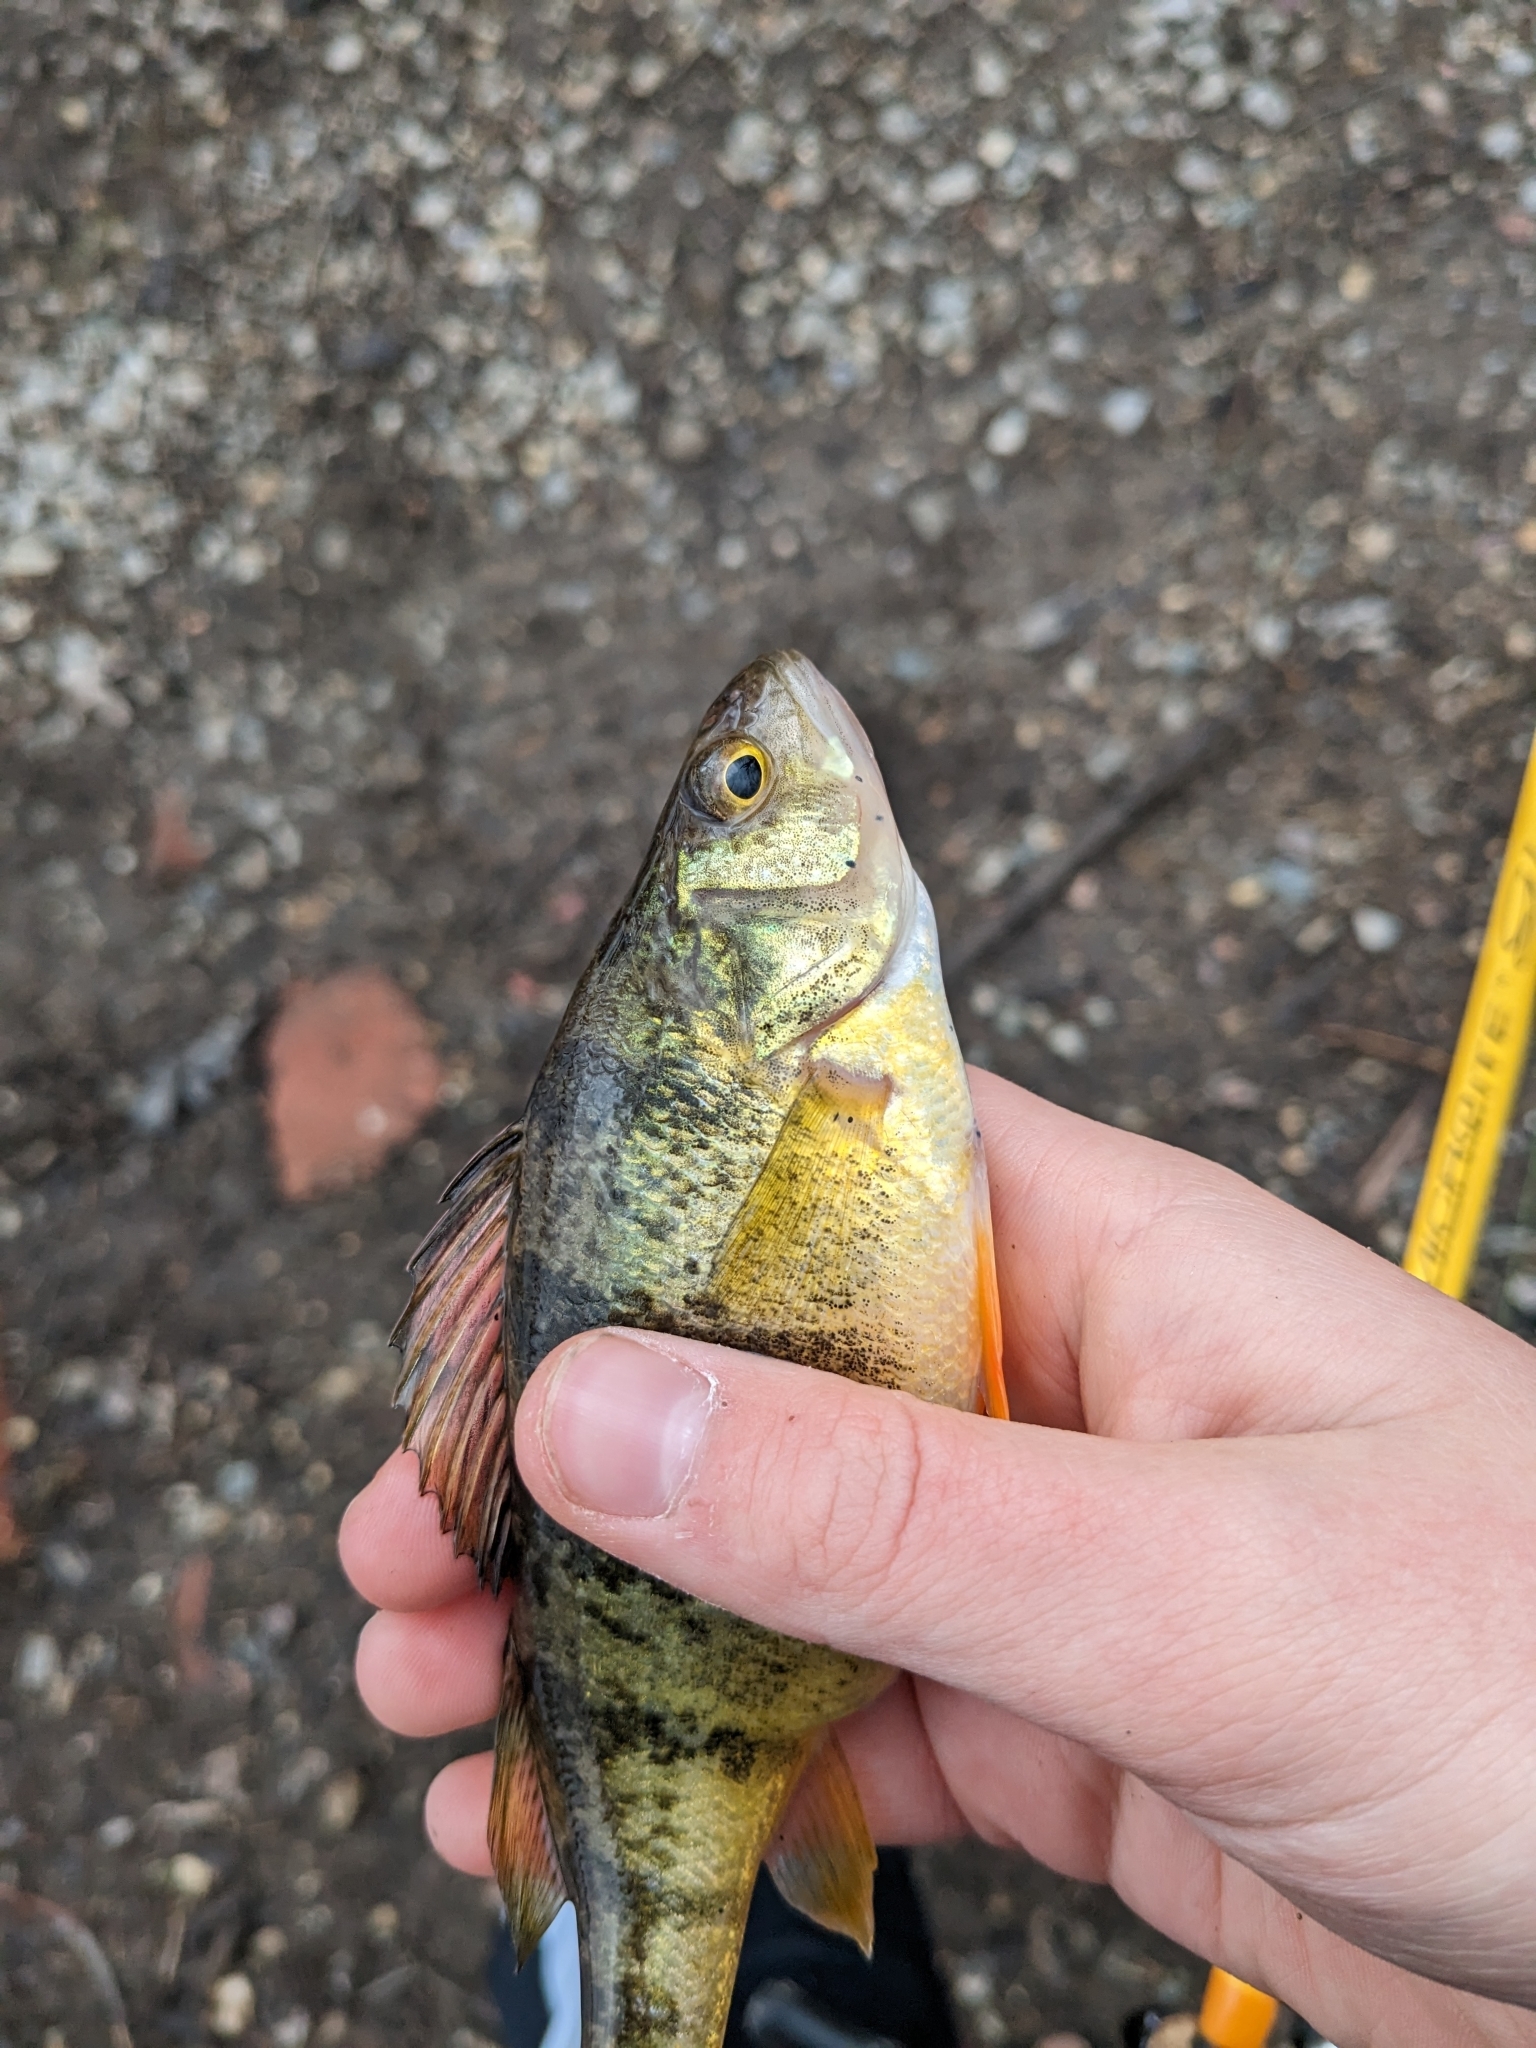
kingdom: Animalia
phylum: Chordata
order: Perciformes
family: Percidae
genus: Perca
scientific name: Perca flavescens
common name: Yellow perch
